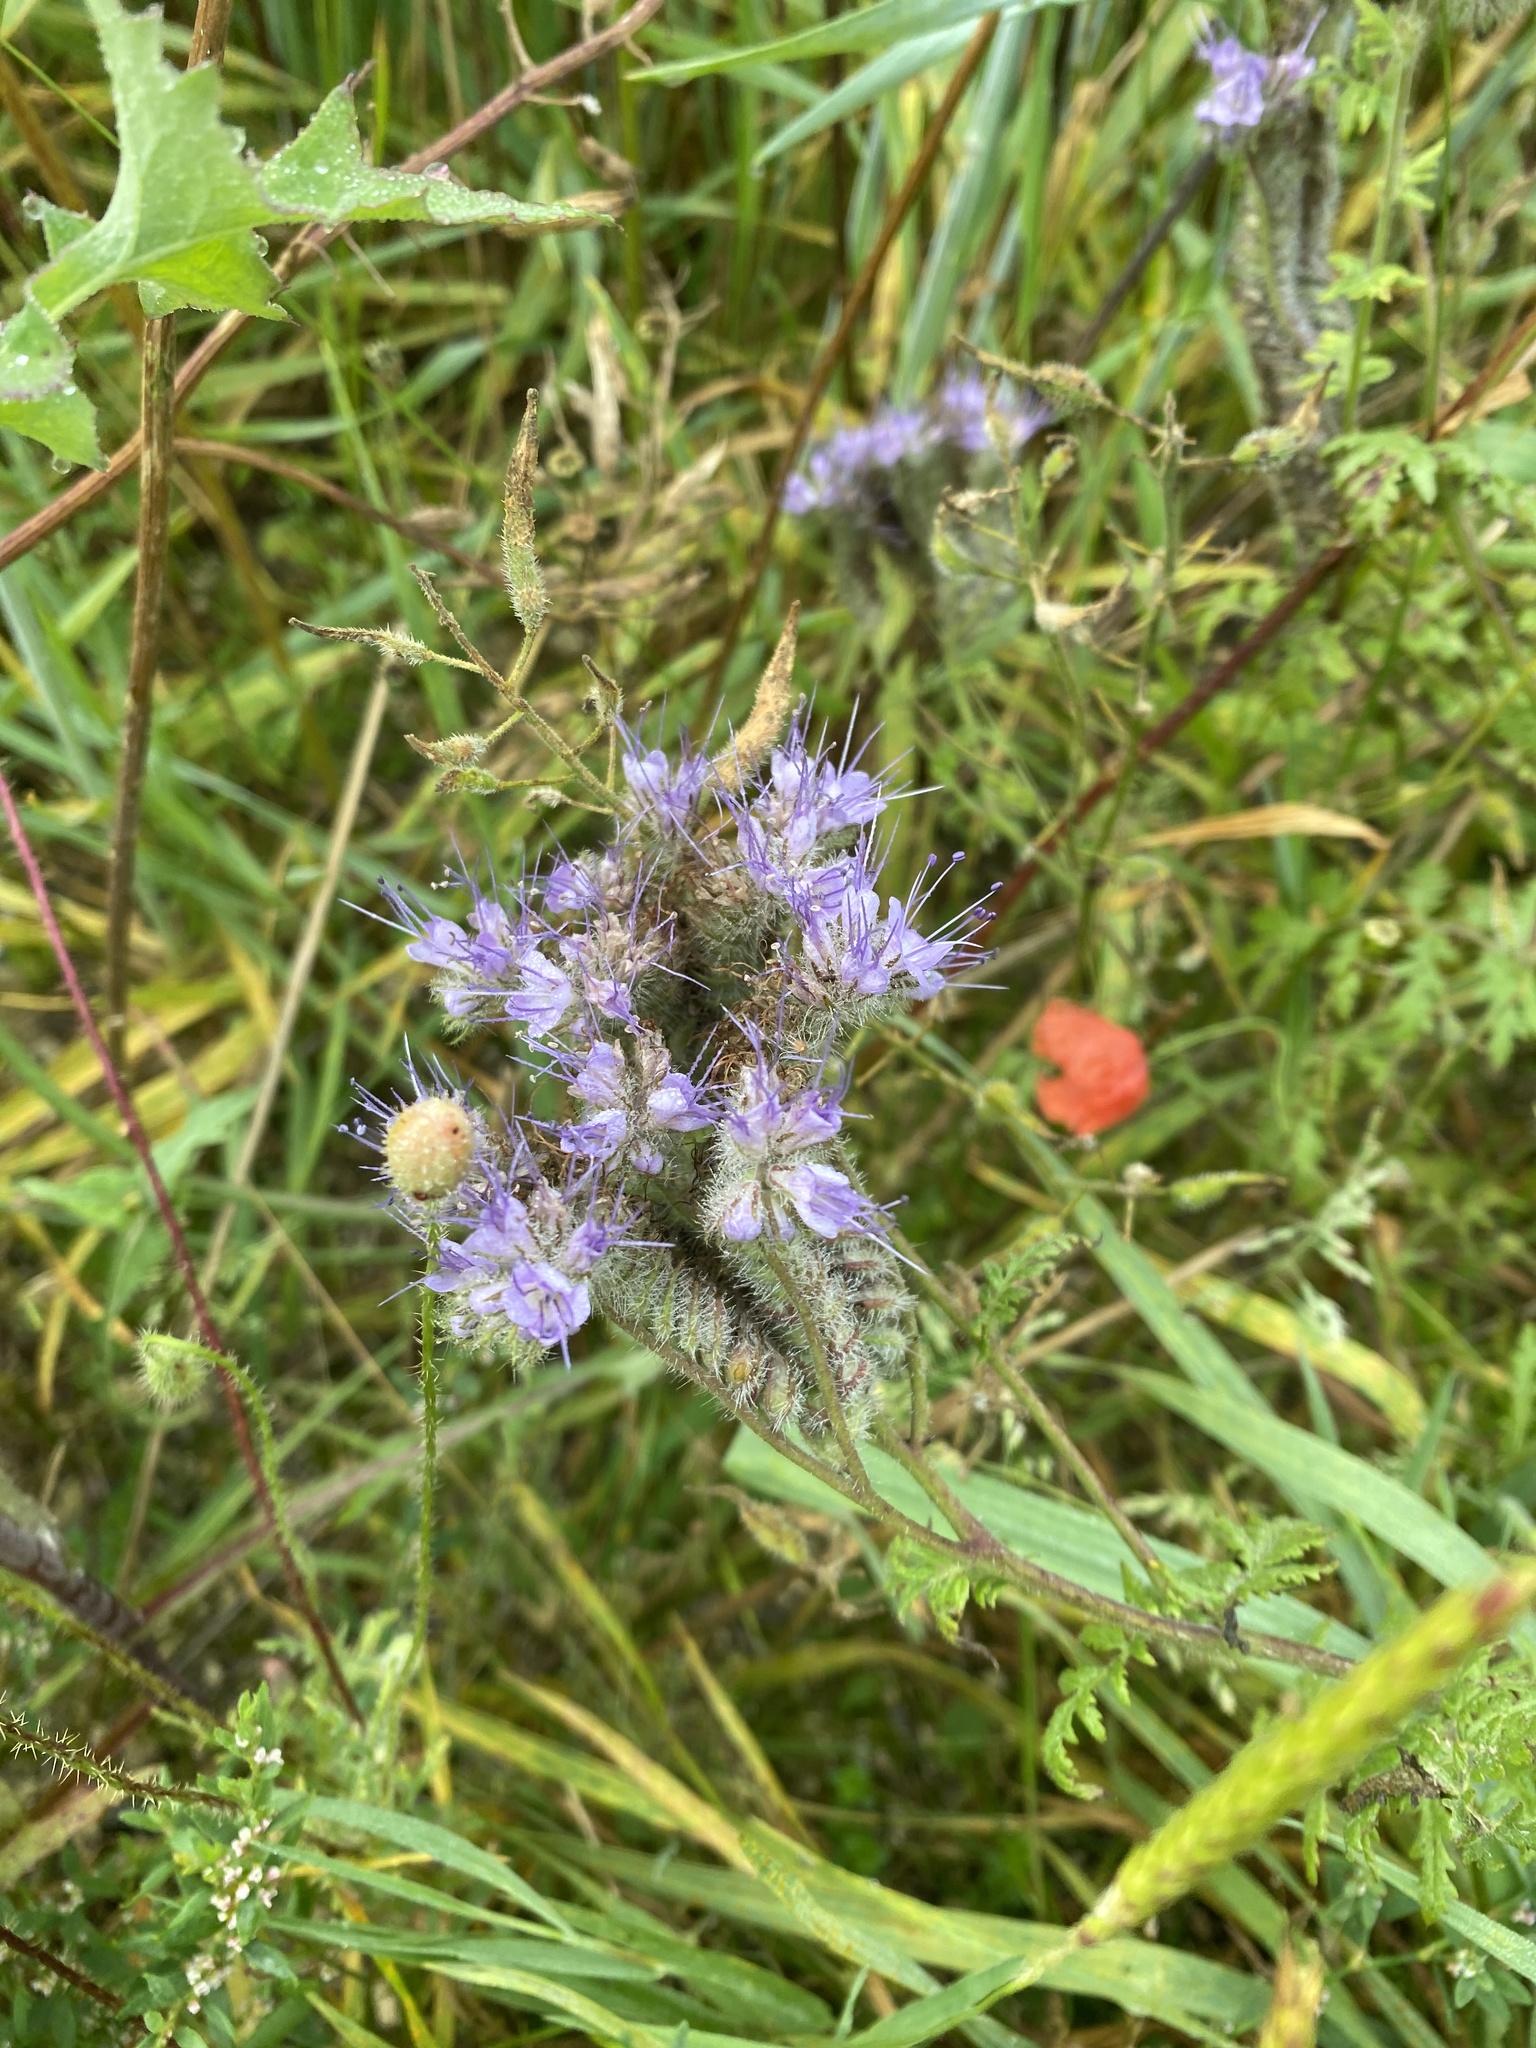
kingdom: Plantae
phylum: Tracheophyta
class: Magnoliopsida
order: Boraginales
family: Hydrophyllaceae
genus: Phacelia
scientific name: Phacelia tanacetifolia
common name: Phacelia
